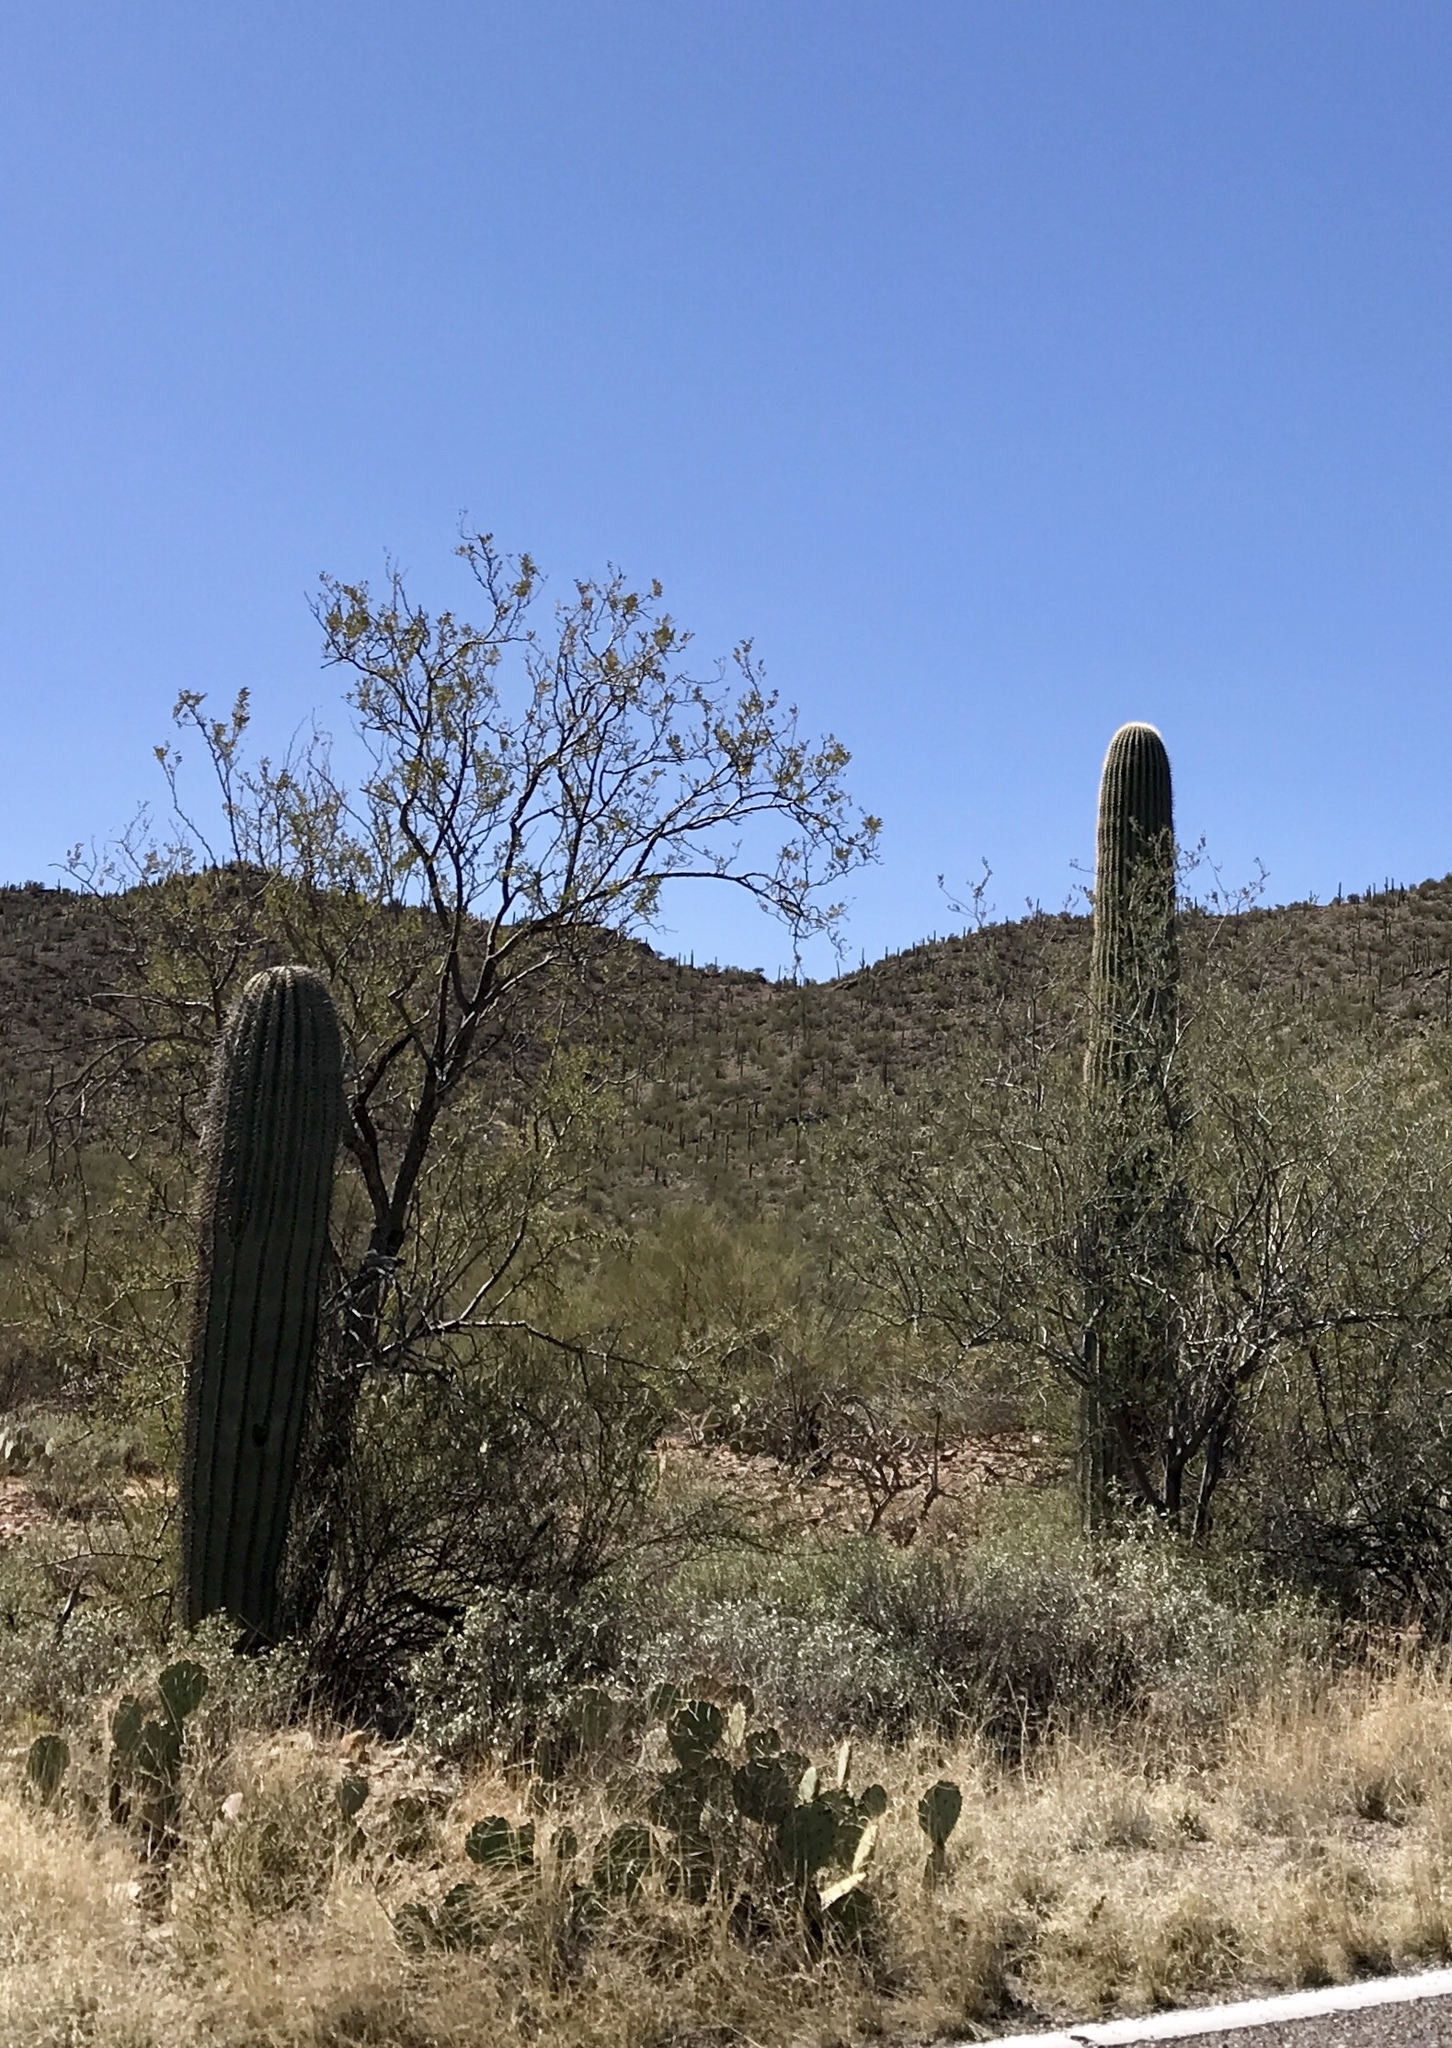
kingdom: Plantae
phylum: Tracheophyta
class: Magnoliopsida
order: Caryophyllales
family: Cactaceae
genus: Carnegiea
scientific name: Carnegiea gigantea
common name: Saguaro
